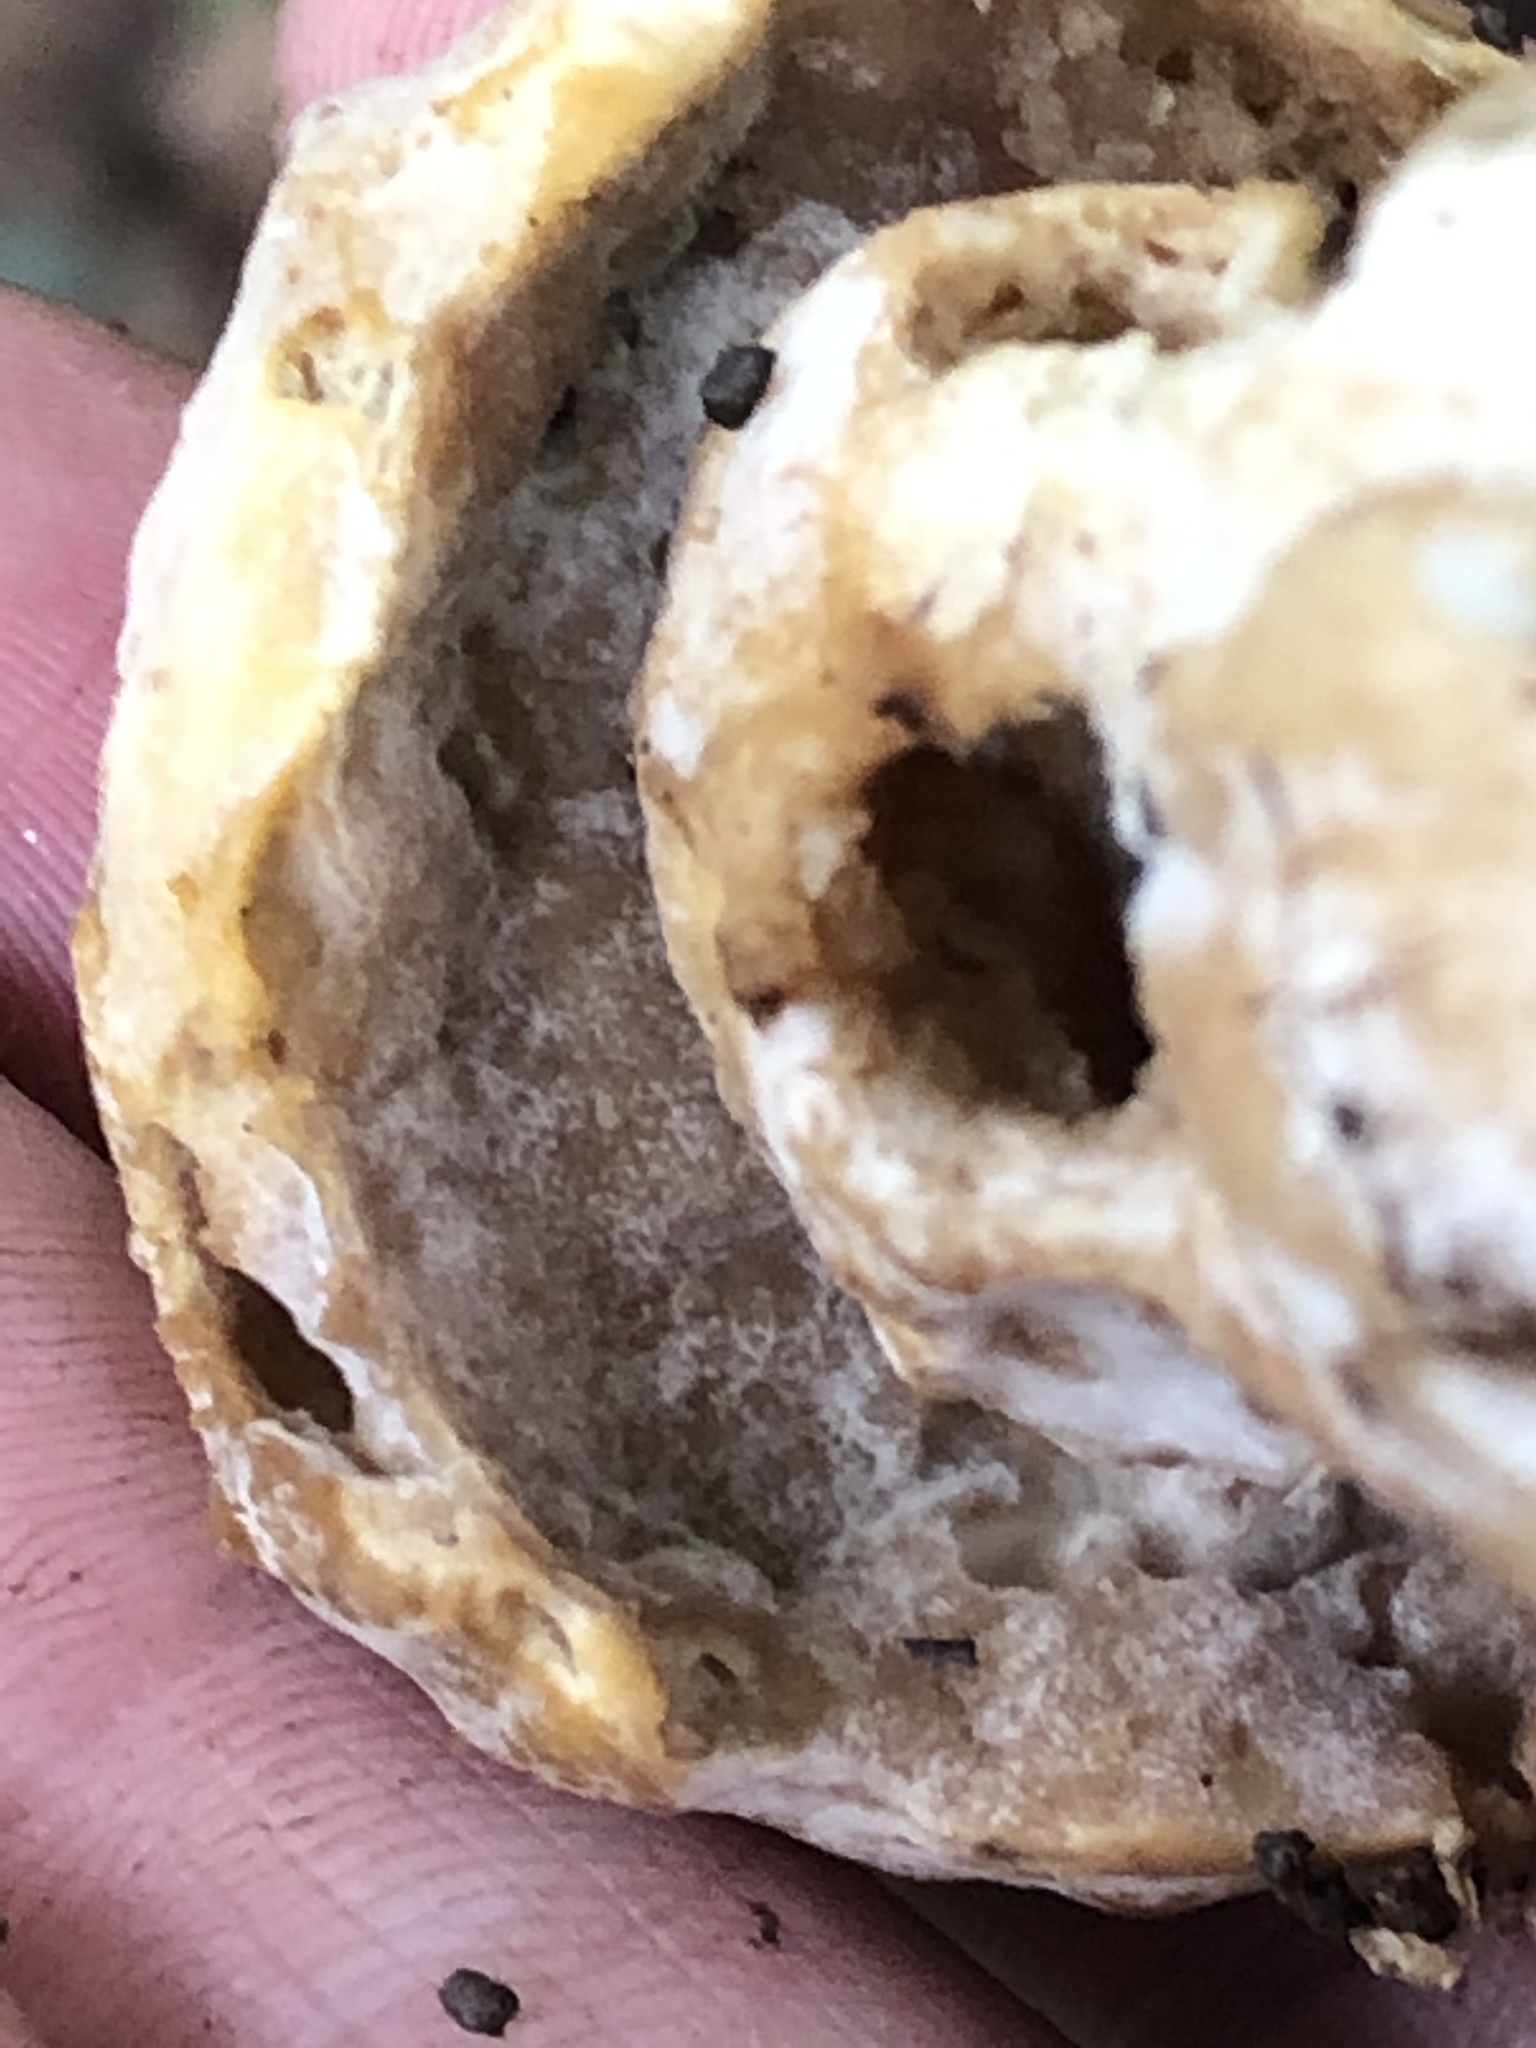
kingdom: Fungi
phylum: Ascomycota
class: Sordariomycetes
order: Hypocreales
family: Hypocreaceae
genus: Hypomyces
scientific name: Hypomyces chrysospermus
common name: Bolete mould
